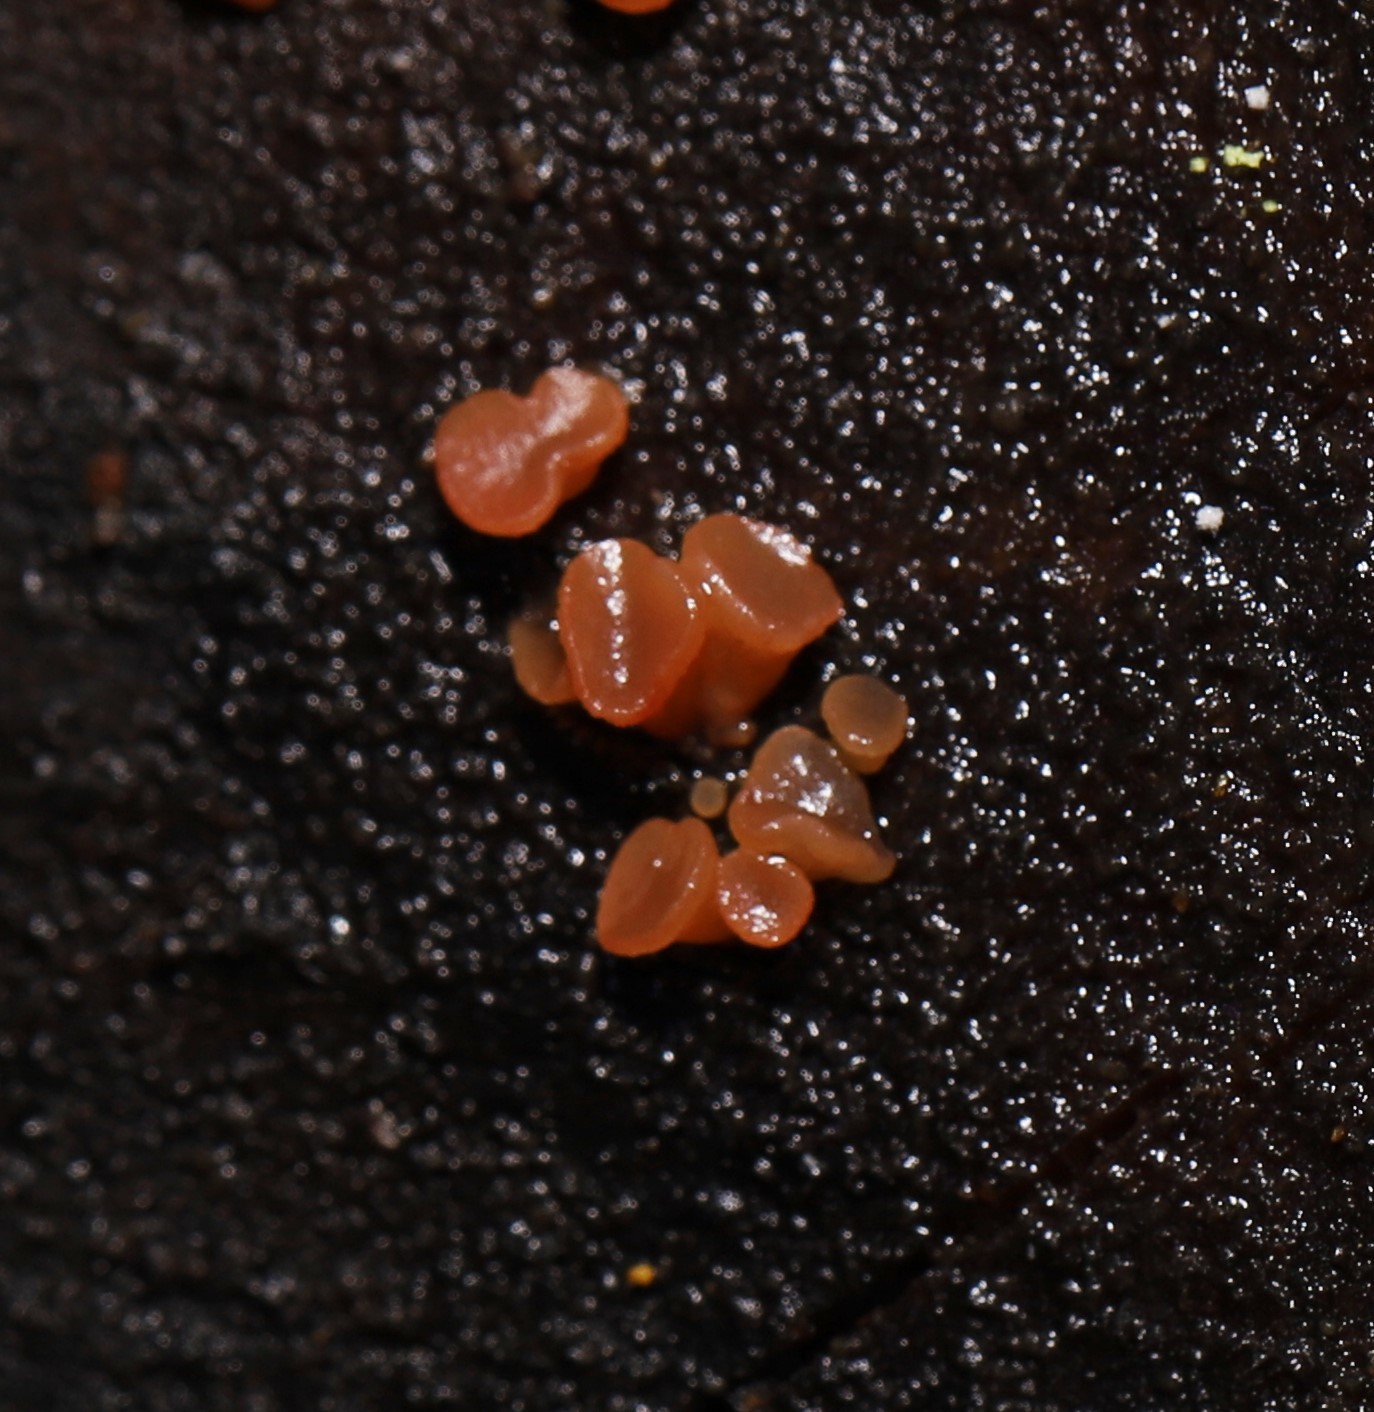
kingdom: Fungi
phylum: Ascomycota
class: Leotiomycetes
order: Helotiales
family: Gelatinodiscaceae
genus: Ascocoryne
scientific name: Ascocoryne sarcoides
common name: Purple jellydisc
